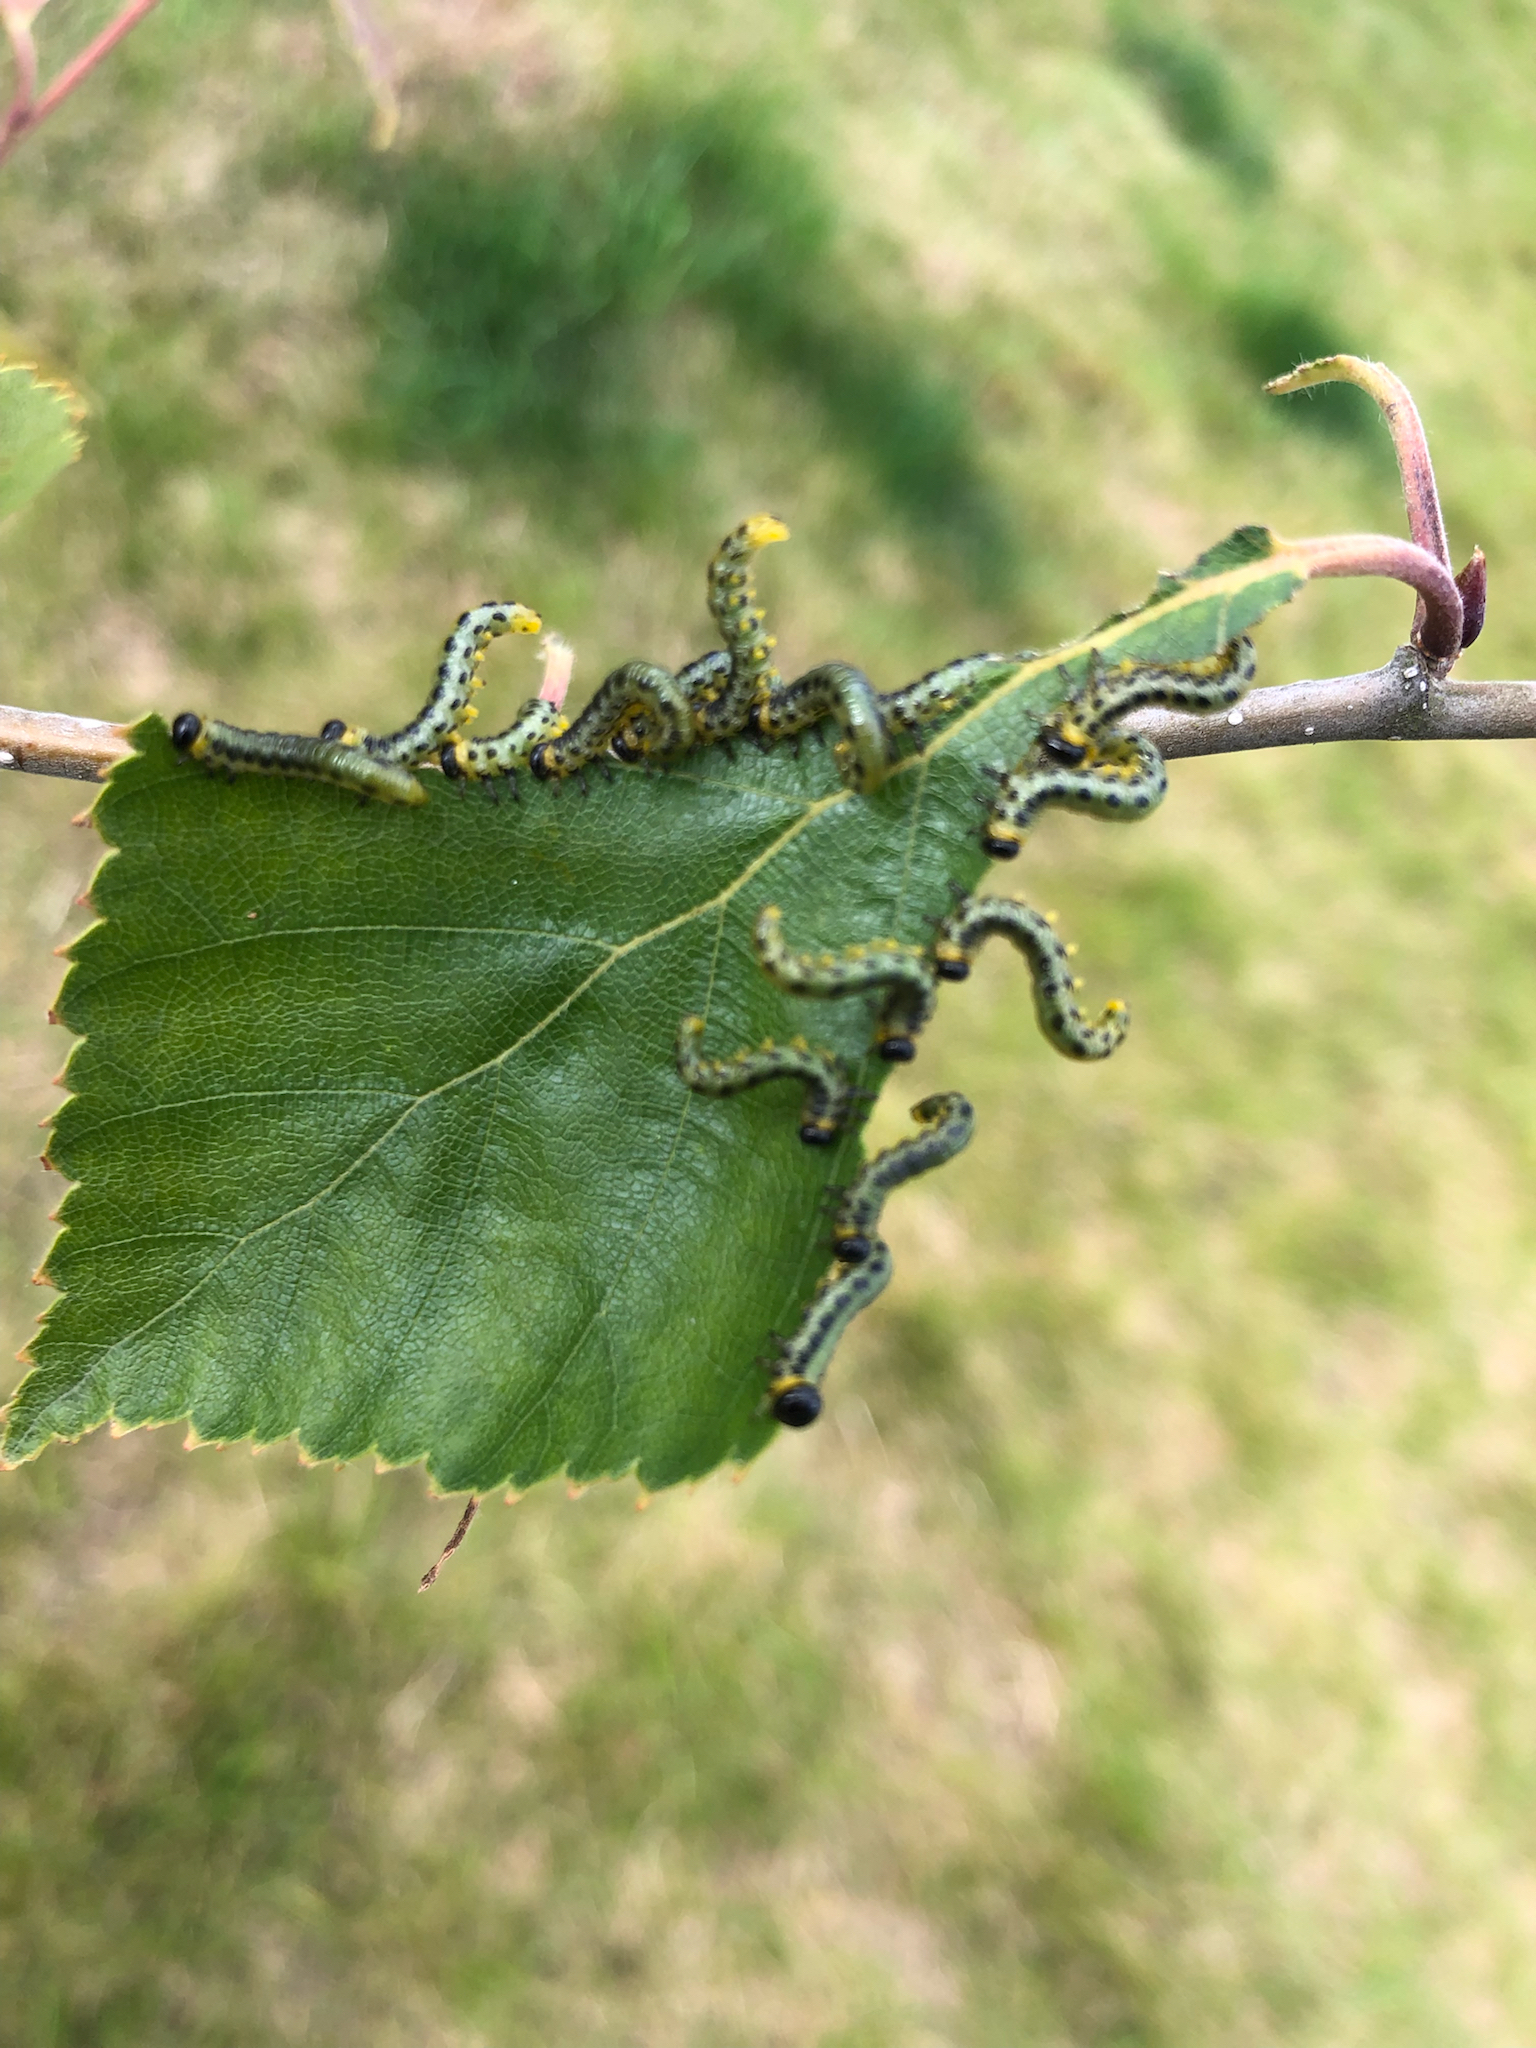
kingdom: Animalia
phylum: Arthropoda
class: Insecta
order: Hymenoptera
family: Tenthredinidae
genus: Craesus
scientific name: Craesus septentrionalis
